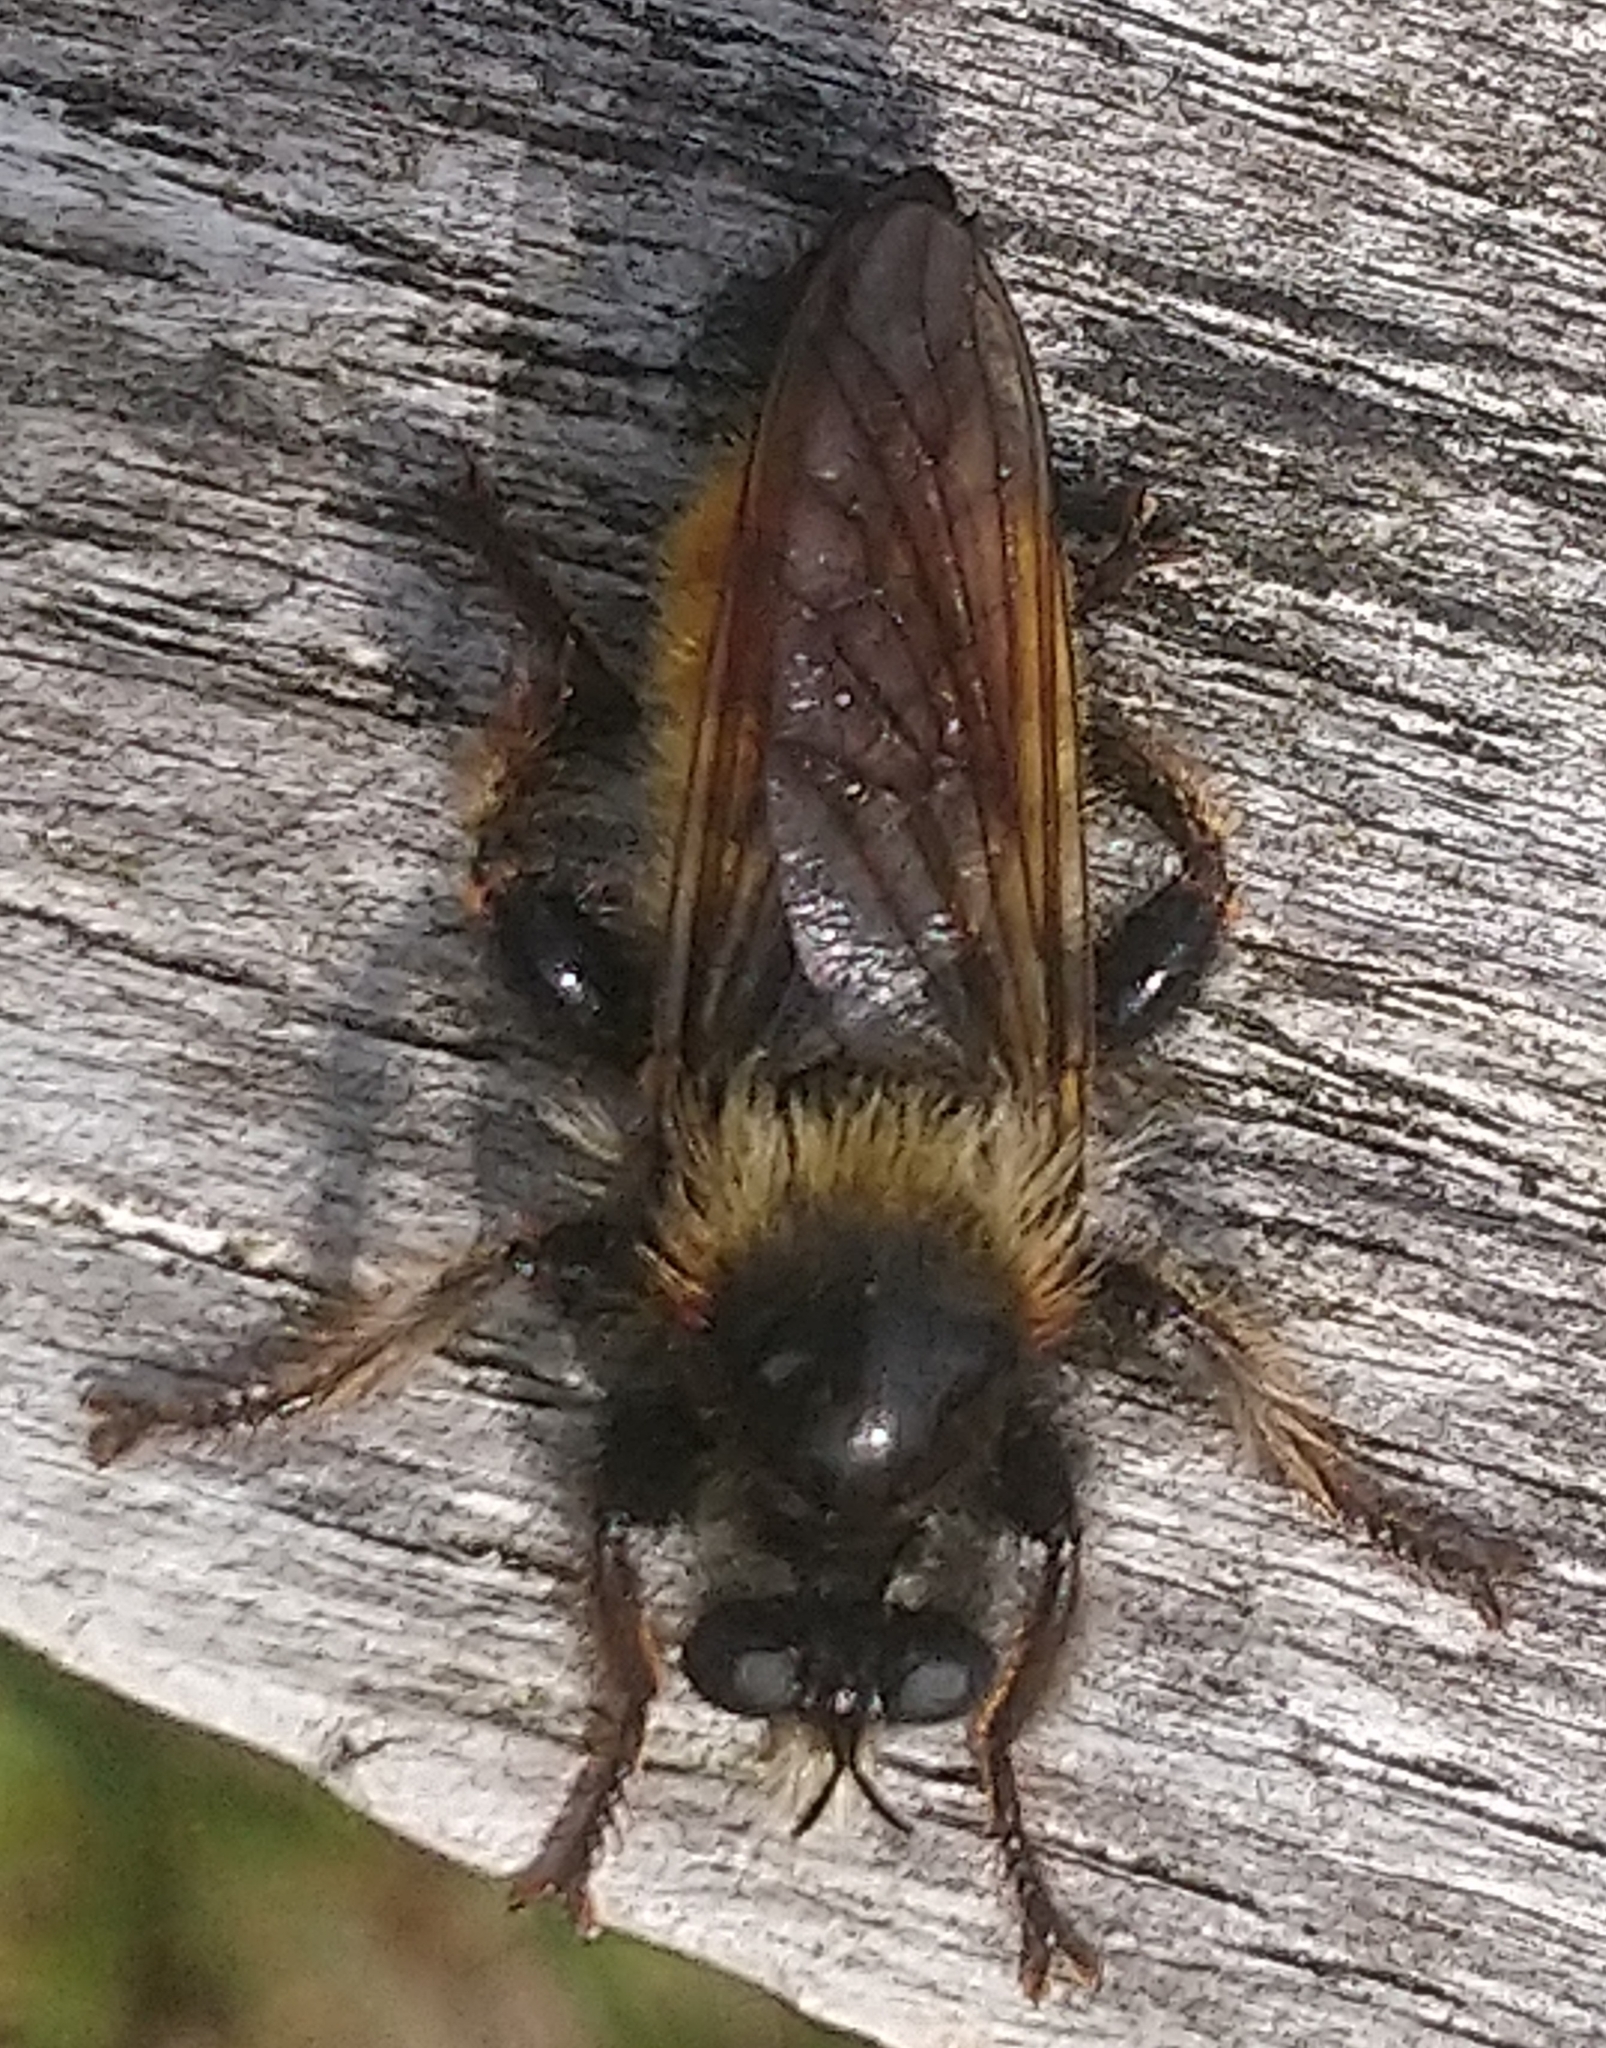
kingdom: Animalia
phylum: Arthropoda
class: Insecta
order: Diptera
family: Asilidae
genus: Laphria
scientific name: Laphria flava
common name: Bumblebee robberfly
